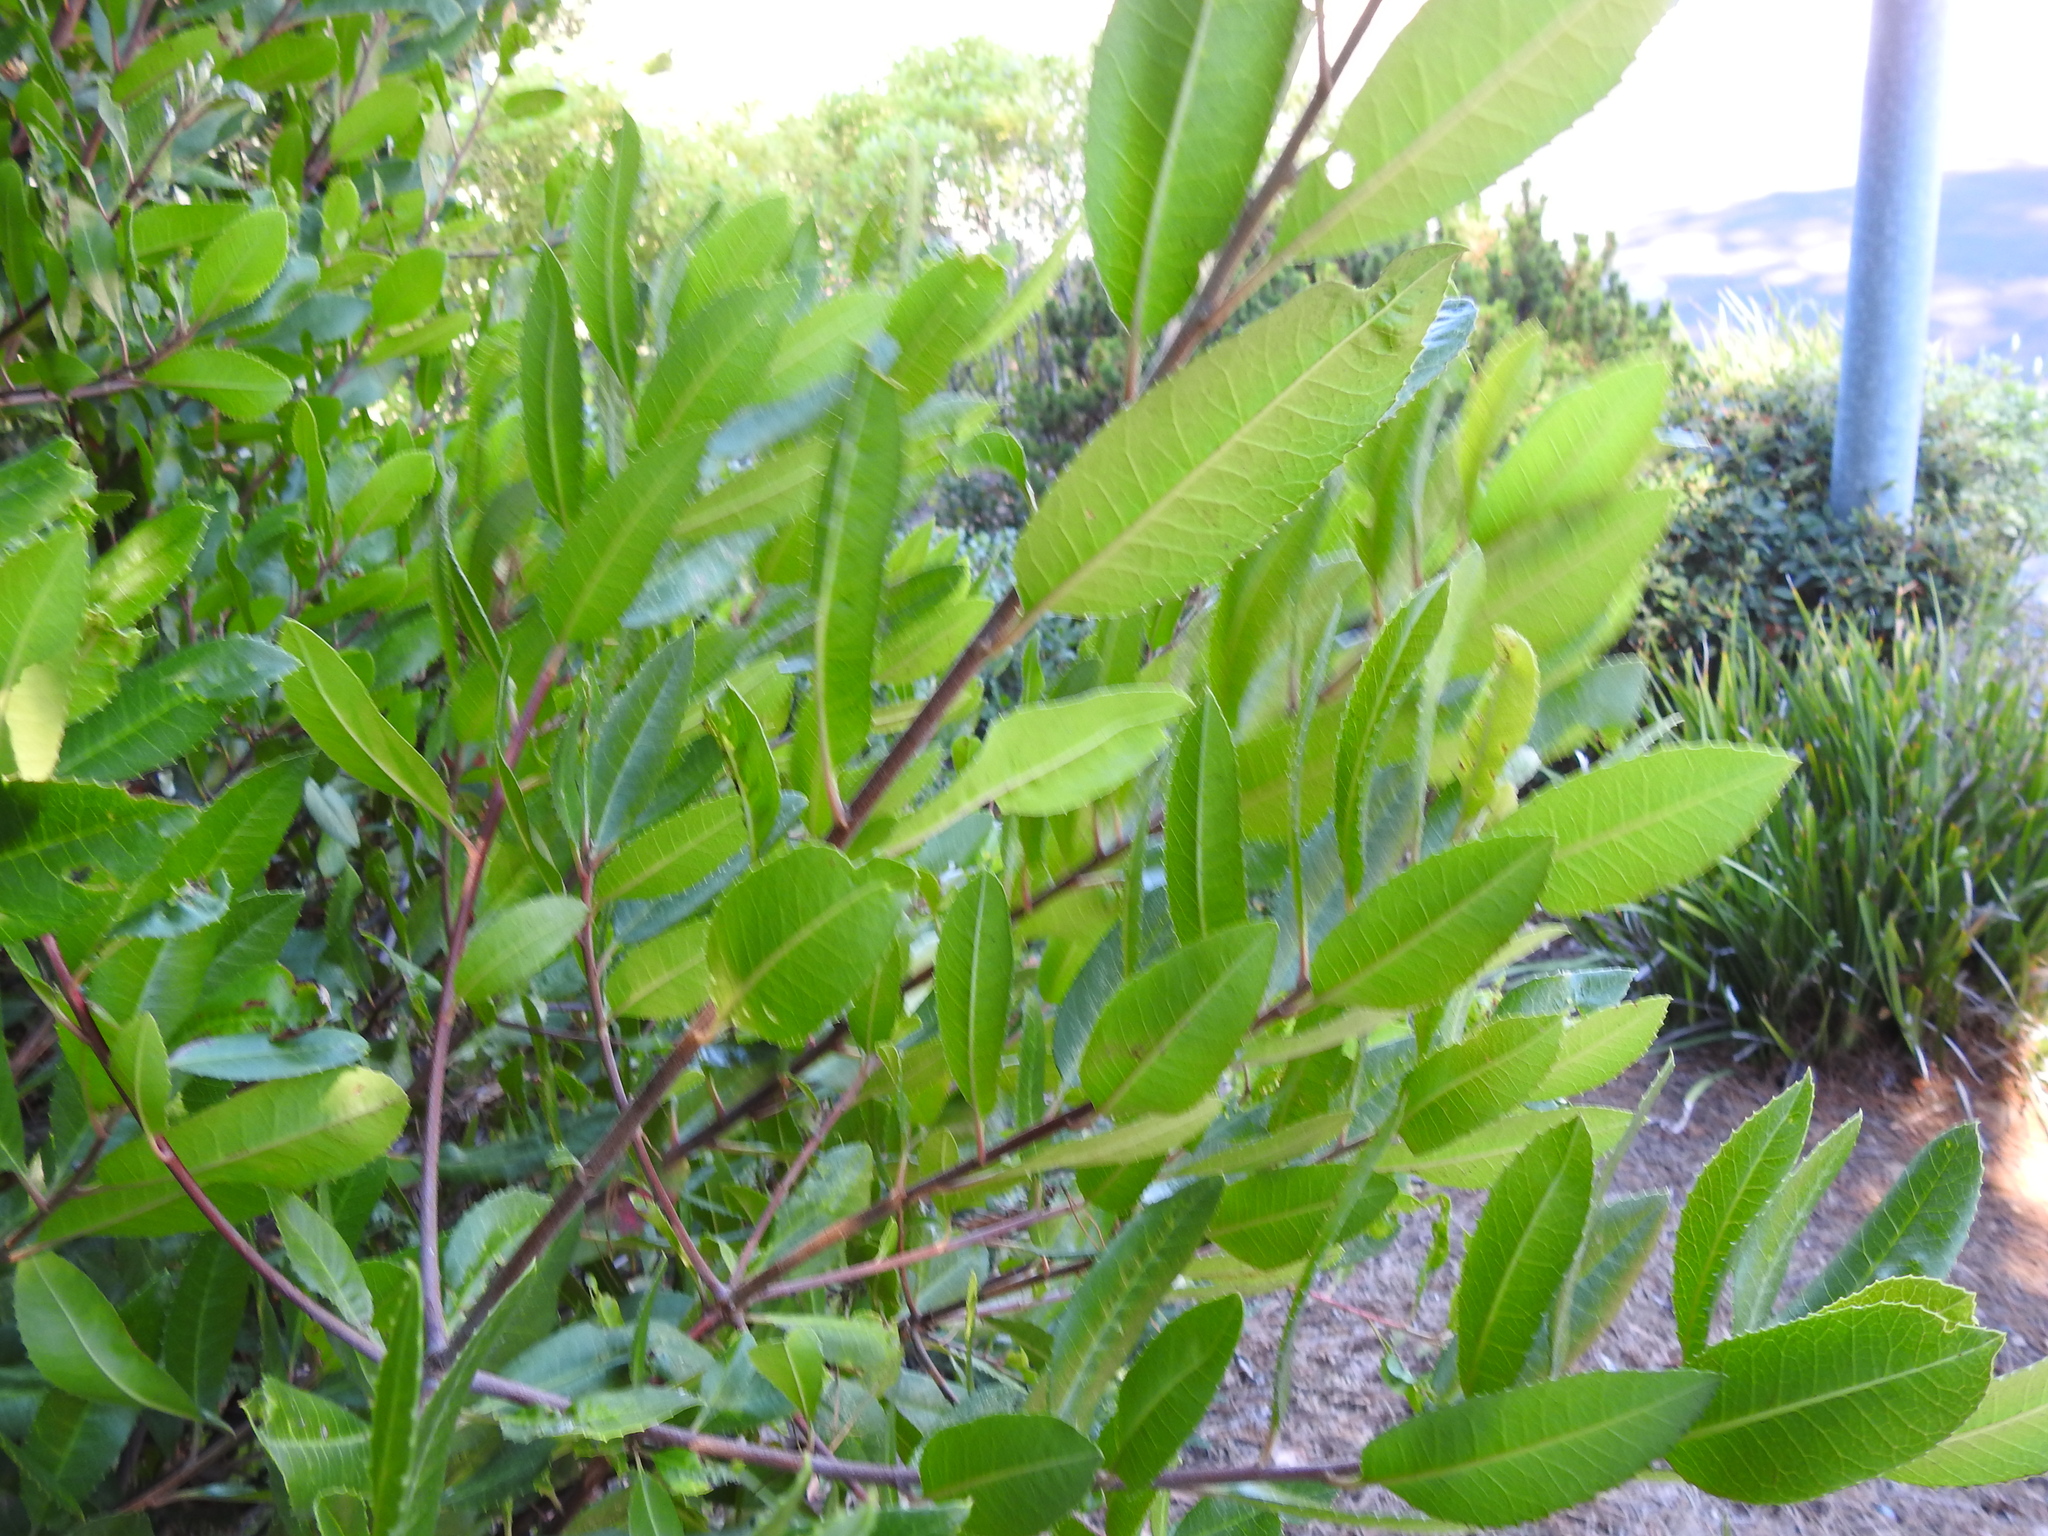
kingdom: Plantae
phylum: Tracheophyta
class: Magnoliopsida
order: Rosales
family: Rosaceae
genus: Heteromeles
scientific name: Heteromeles arbutifolia
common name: California-holly
